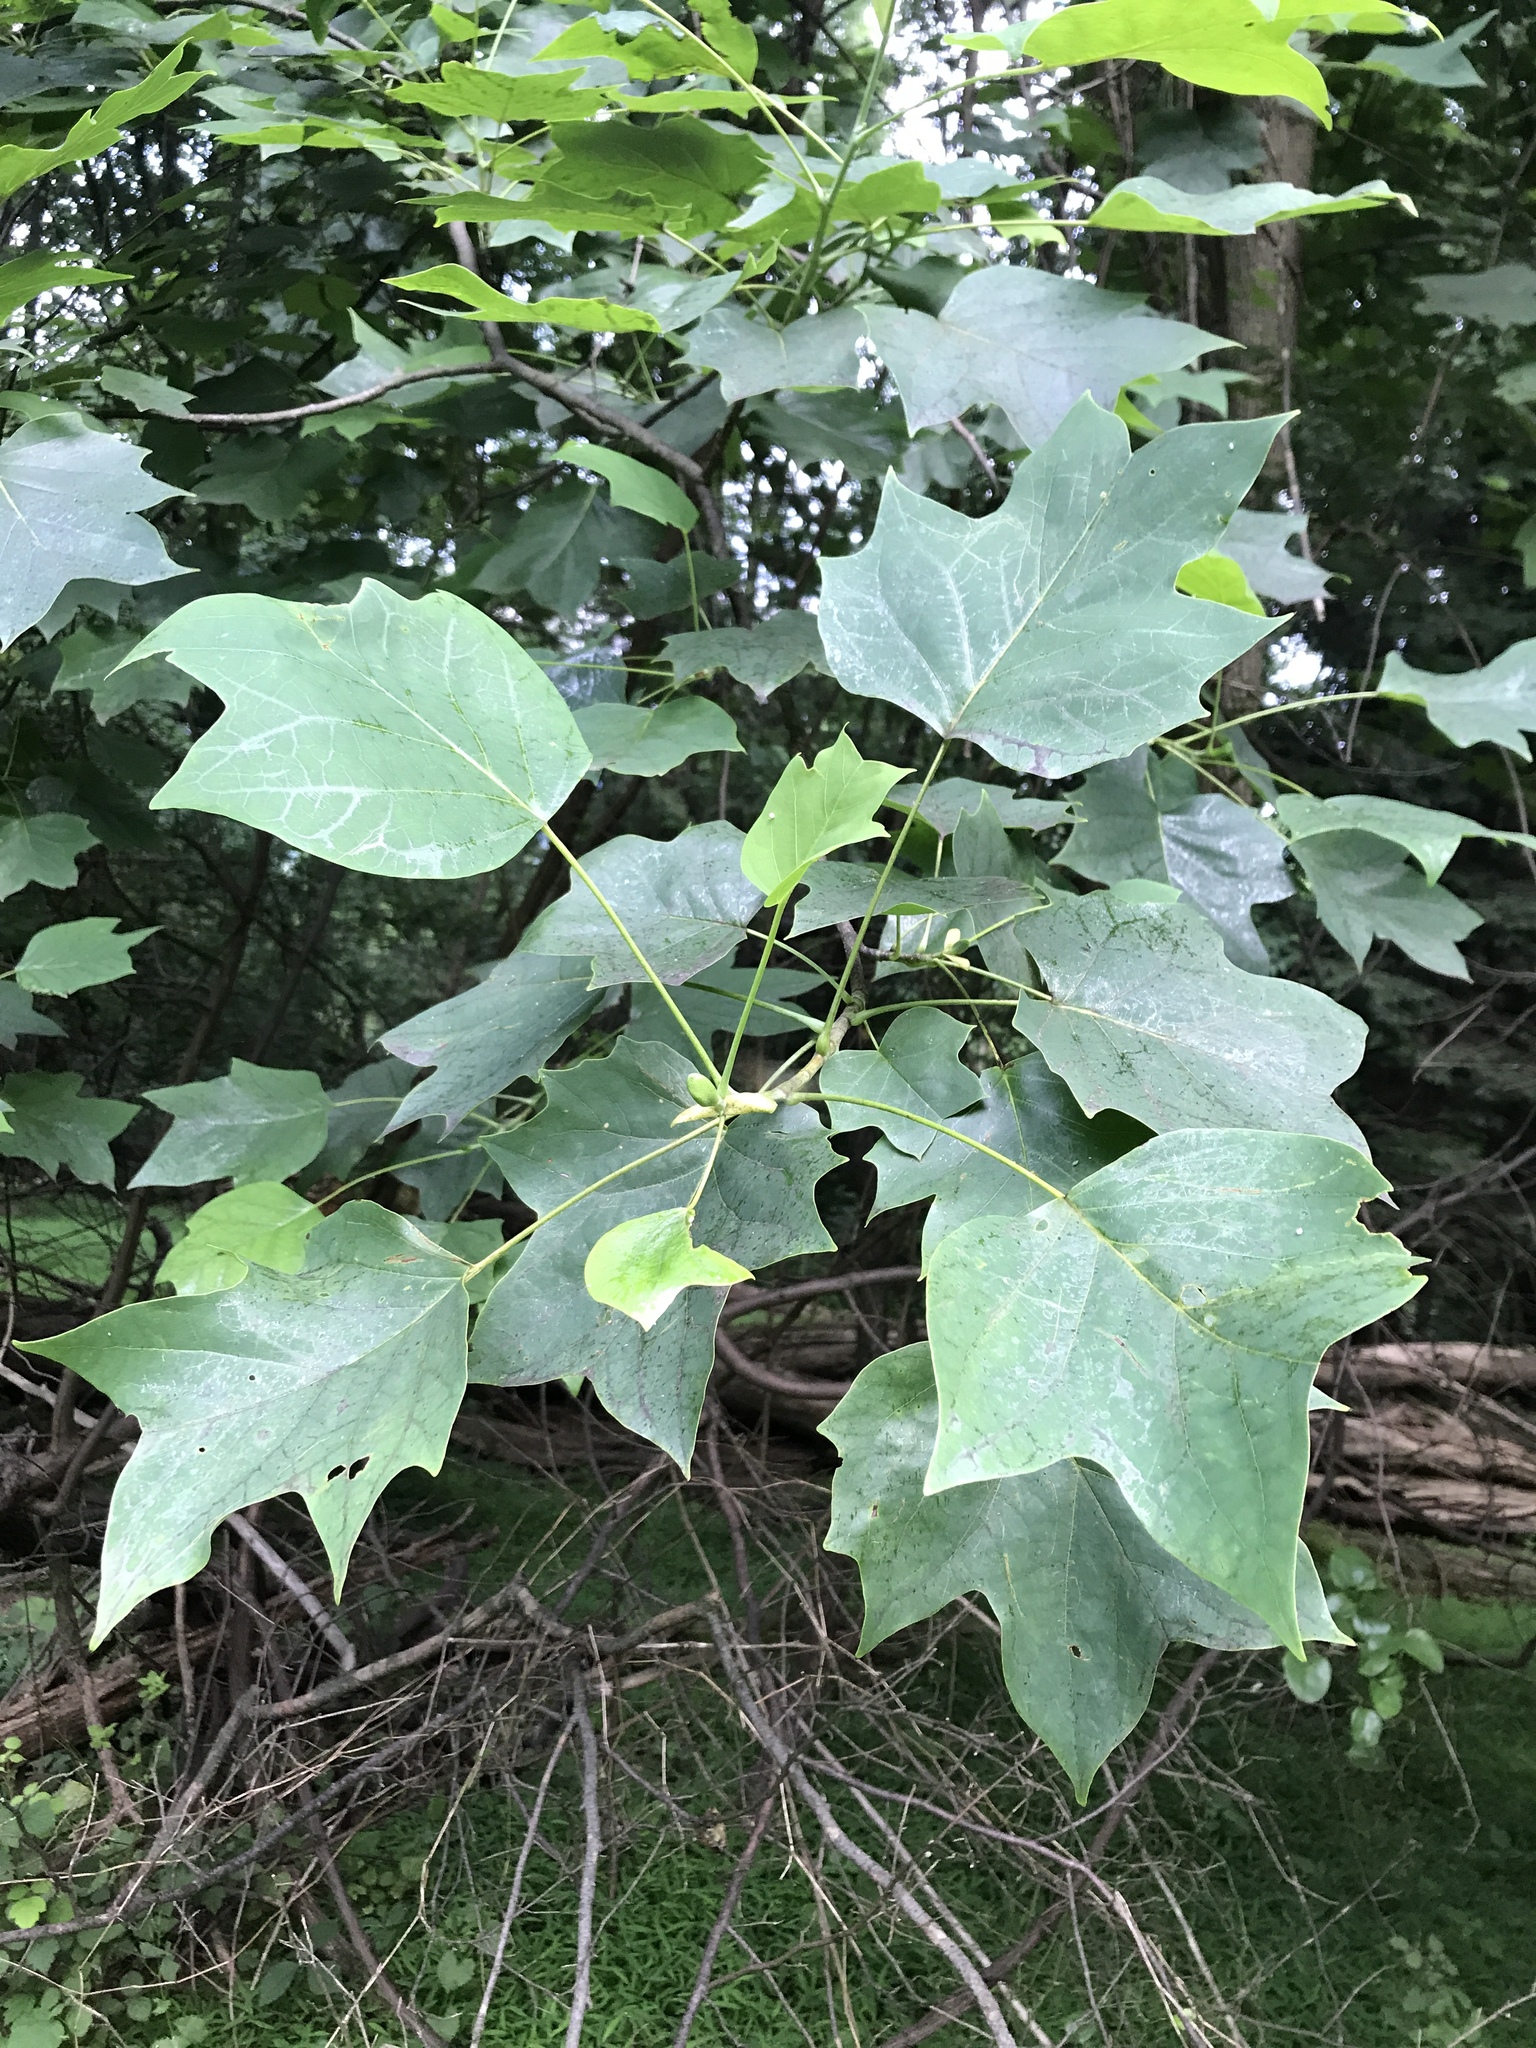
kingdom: Plantae
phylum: Tracheophyta
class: Magnoliopsida
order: Magnoliales
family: Magnoliaceae
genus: Liriodendron
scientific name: Liriodendron tulipifera
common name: Tulip tree
